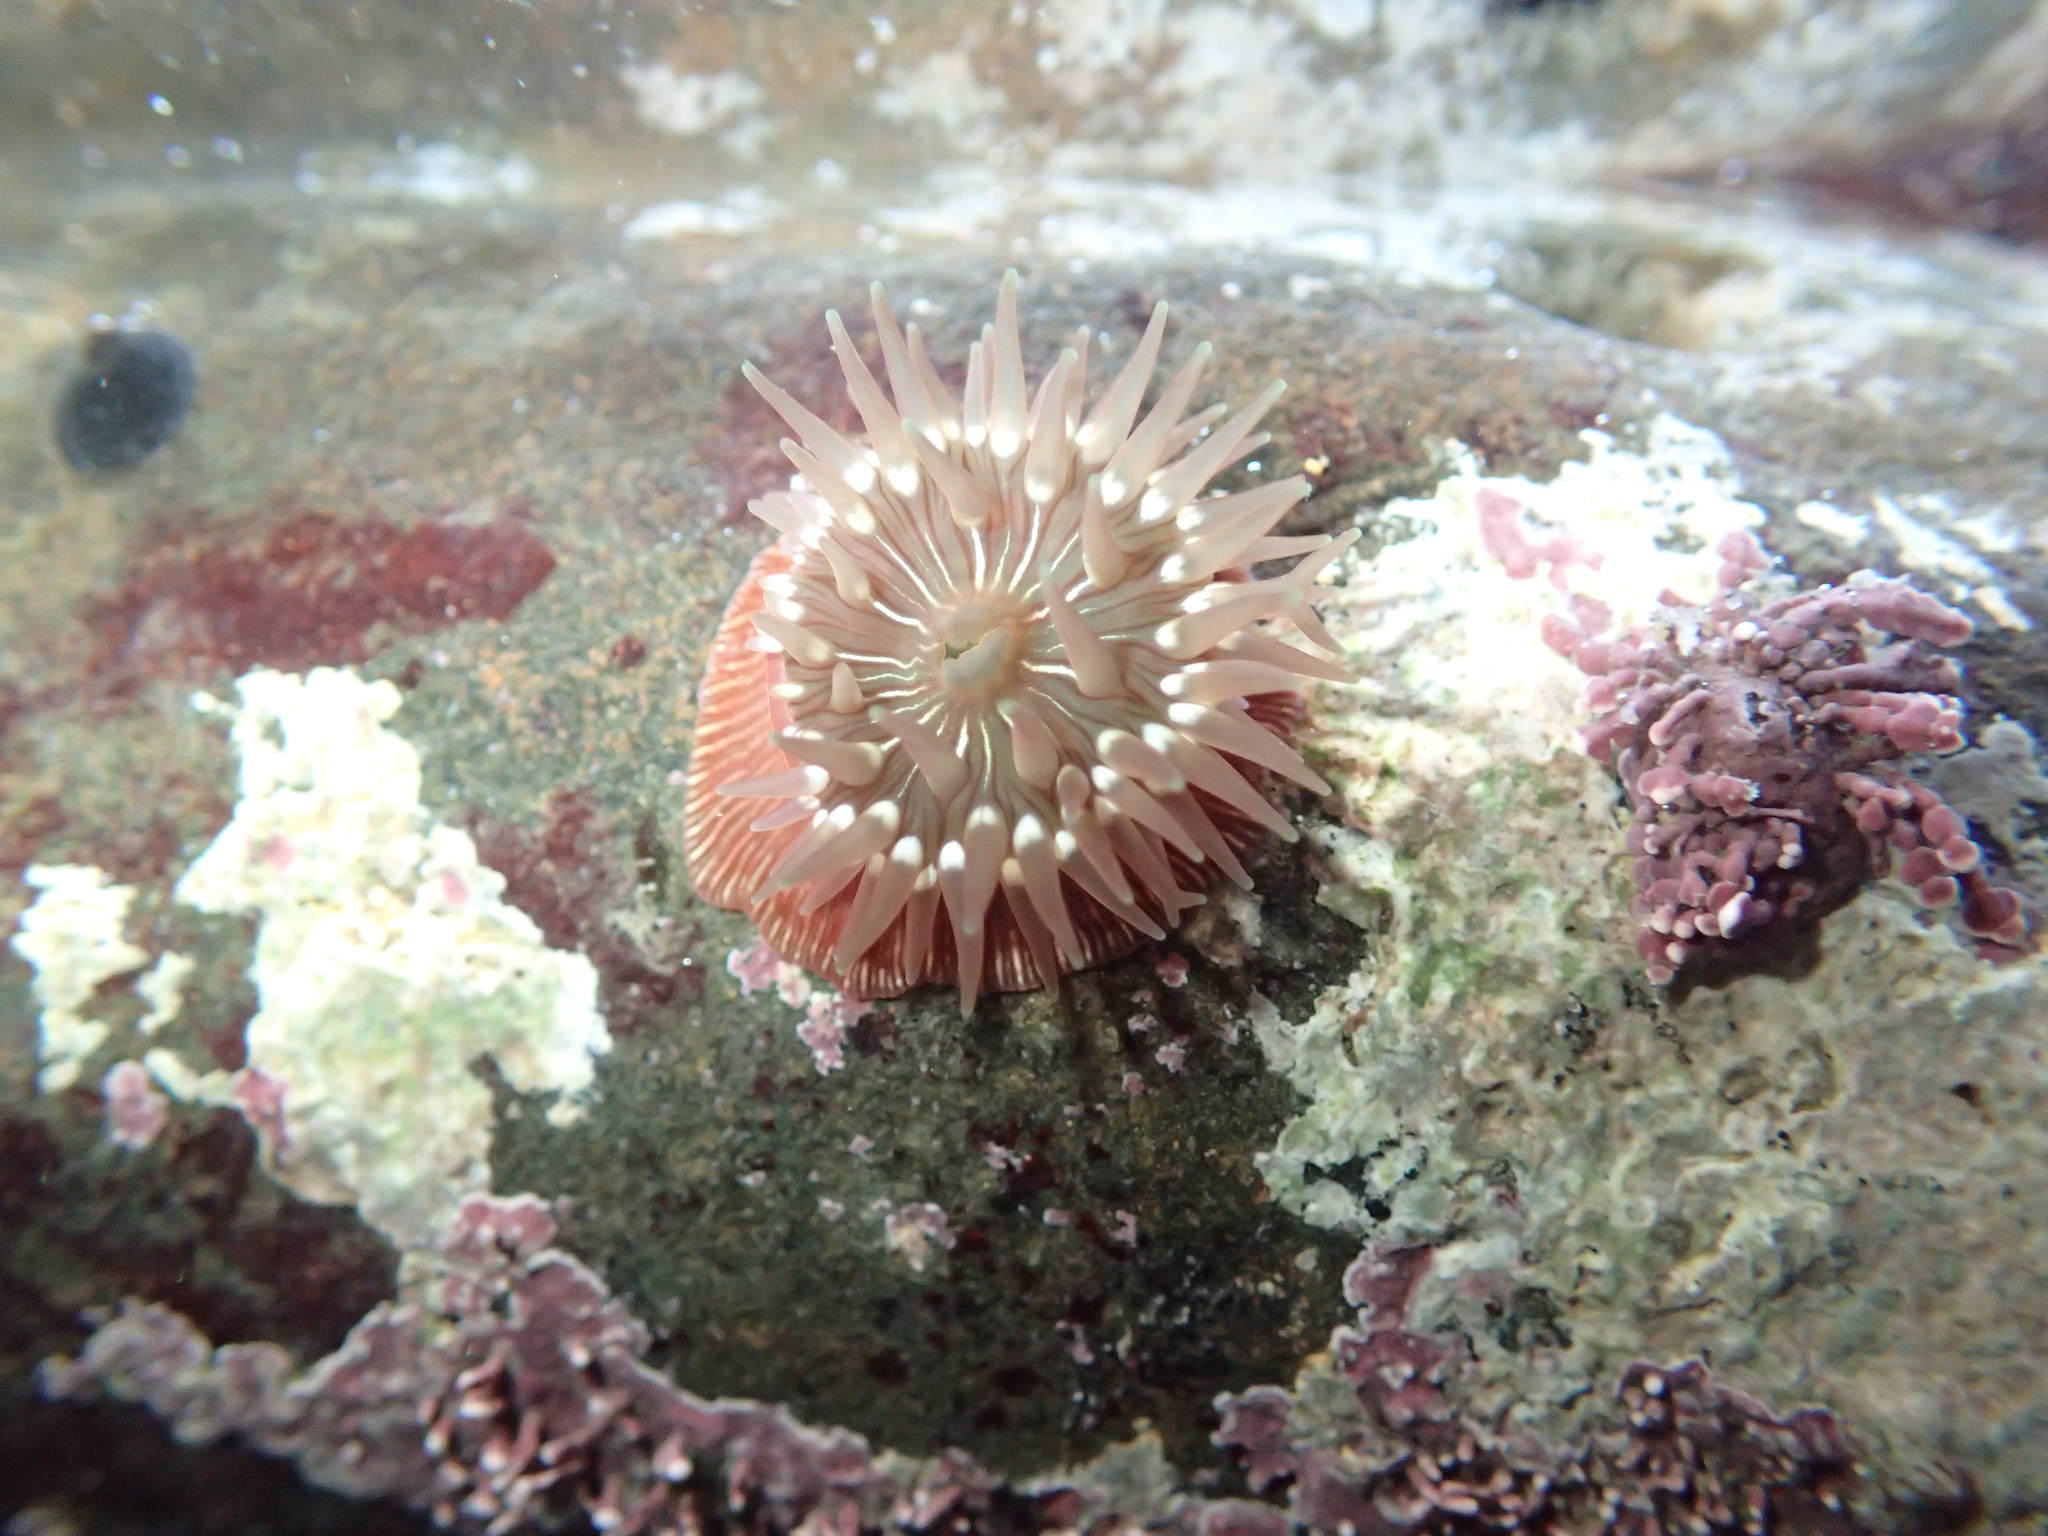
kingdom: Animalia
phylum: Cnidaria
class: Anthozoa
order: Actiniaria
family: Actiniidae
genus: Epiactis
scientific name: Epiactis prolifera
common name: Brooding anemone
